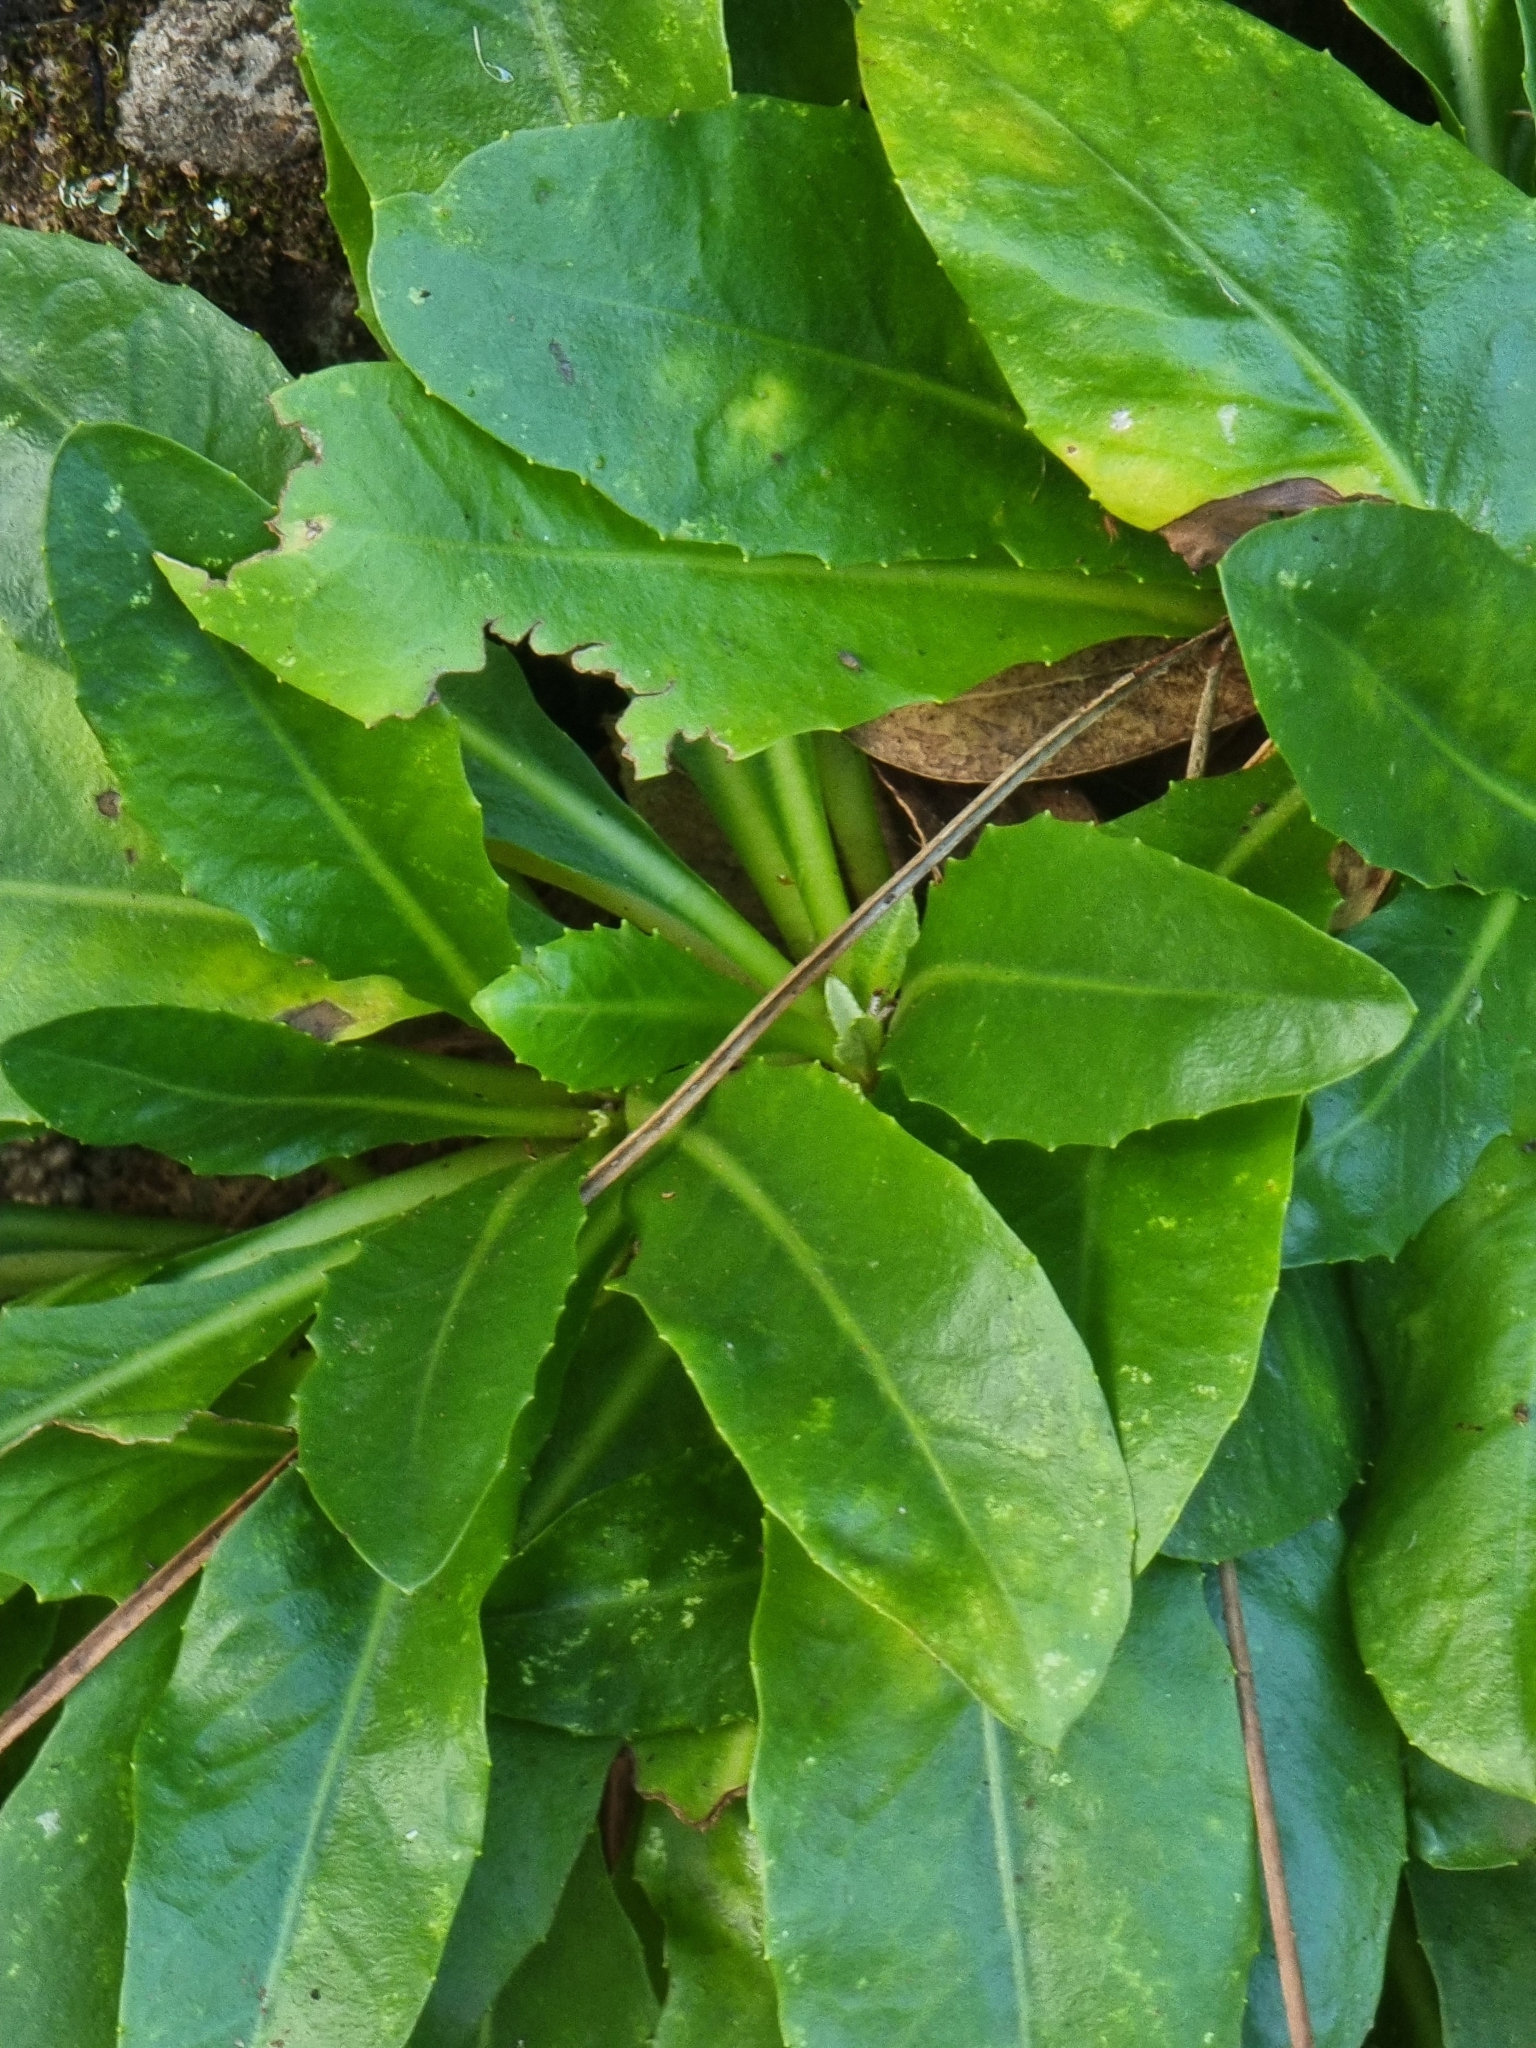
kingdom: Plantae
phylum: Tracheophyta
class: Magnoliopsida
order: Asterales
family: Asteraceae
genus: Tolpis
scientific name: Tolpis macrorhiza
